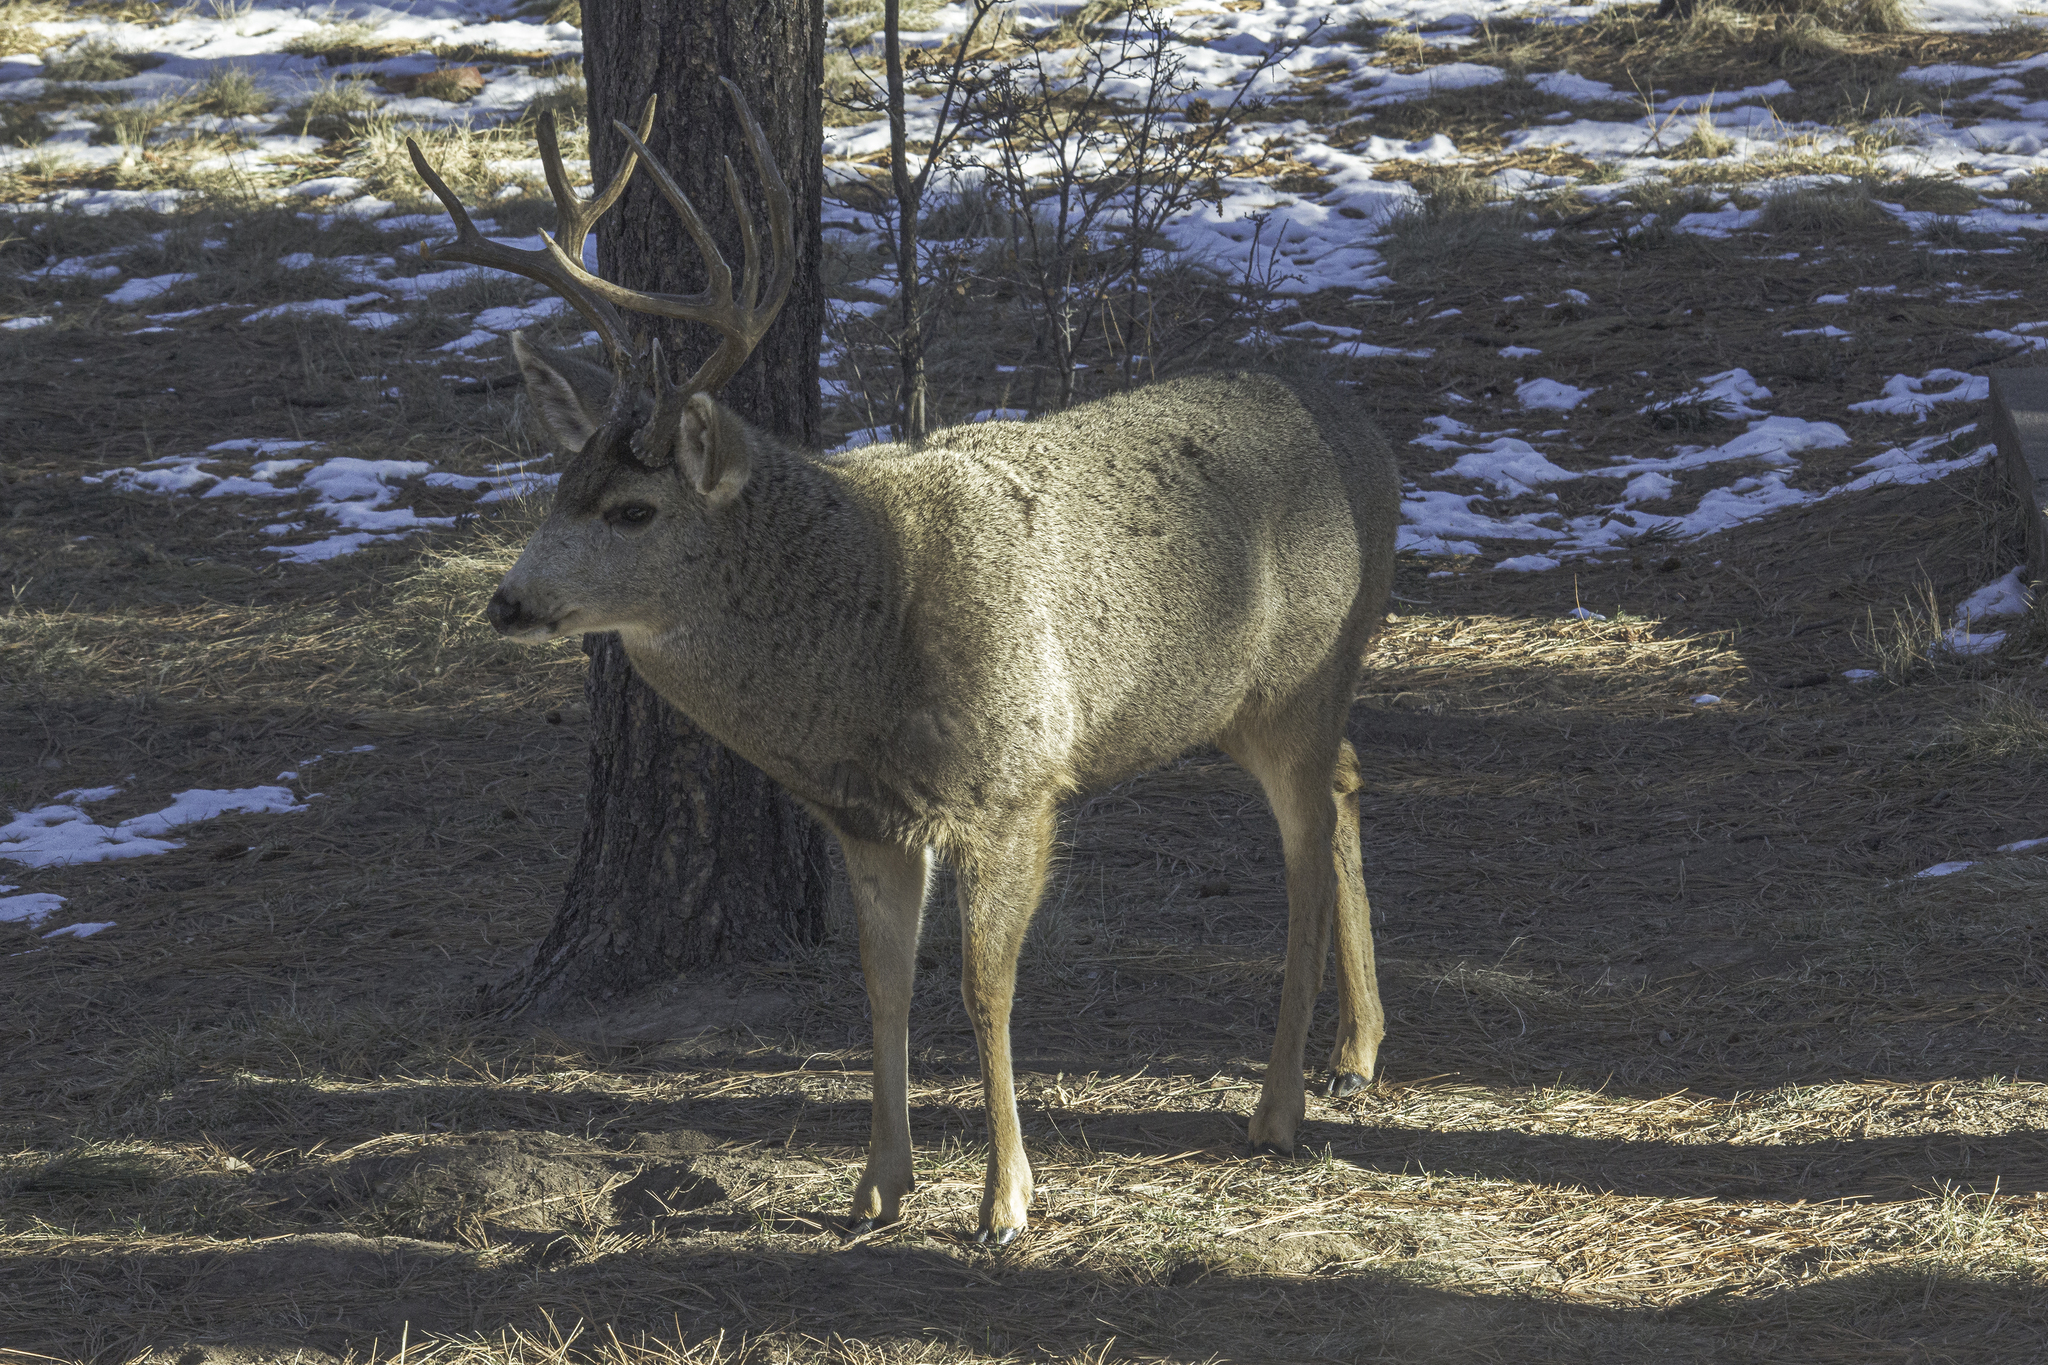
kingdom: Animalia
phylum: Chordata
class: Mammalia
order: Artiodactyla
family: Cervidae
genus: Odocoileus
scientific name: Odocoileus hemionus
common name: Mule deer
